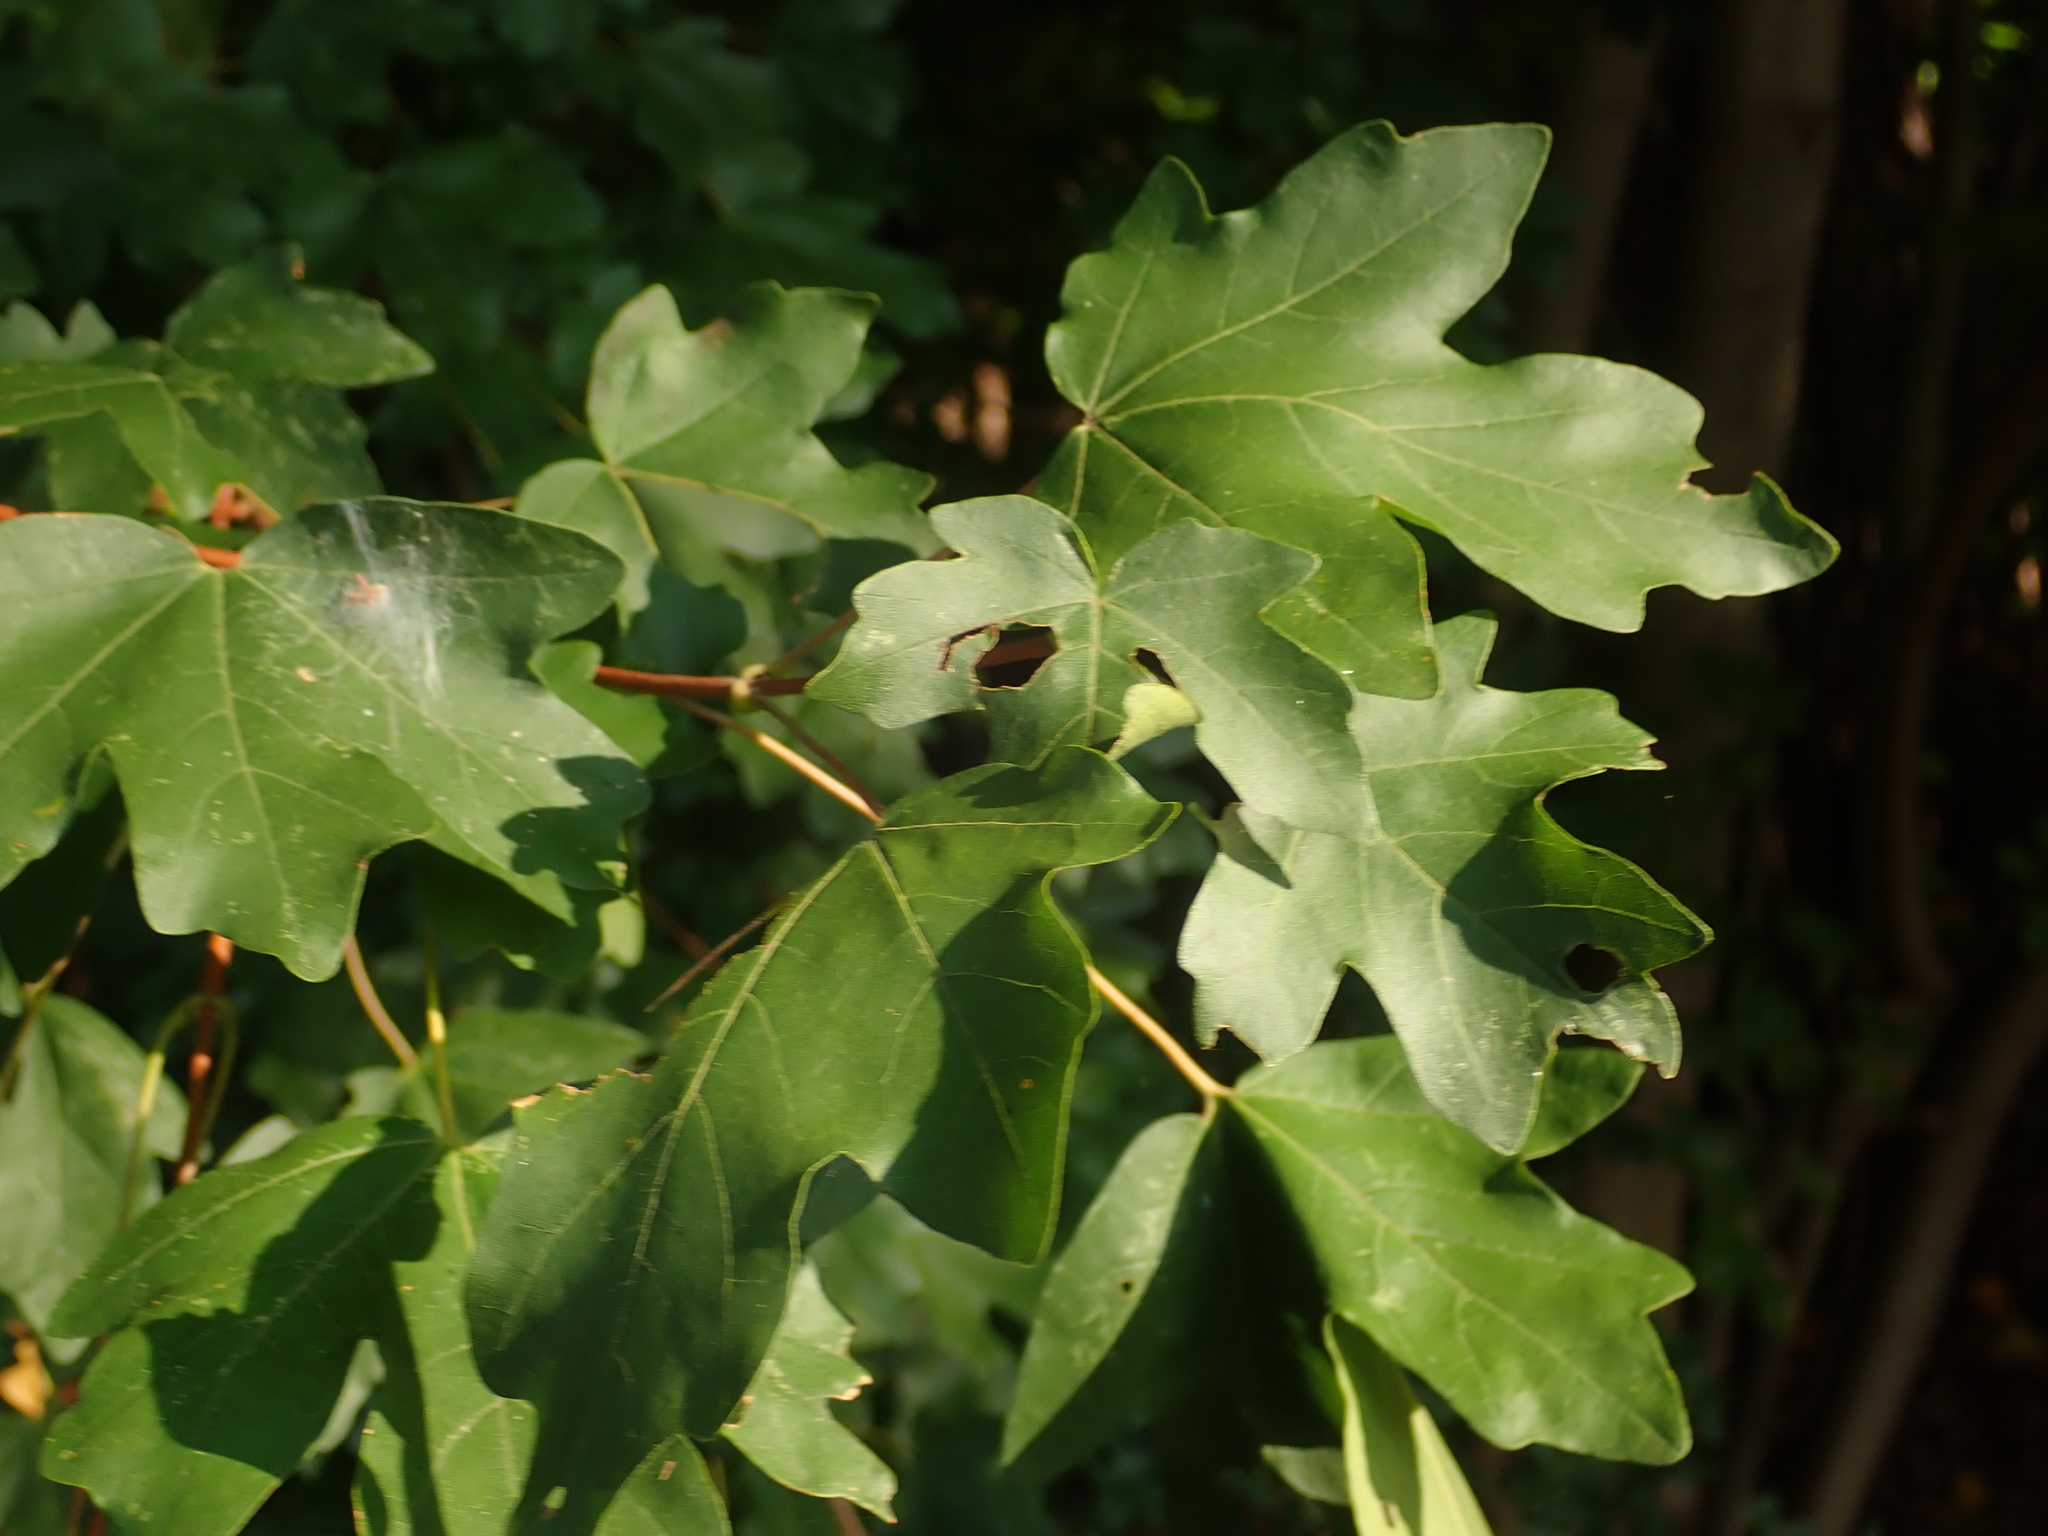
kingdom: Plantae
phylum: Tracheophyta
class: Magnoliopsida
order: Sapindales
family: Sapindaceae
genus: Acer
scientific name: Acer campestre
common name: Field maple
